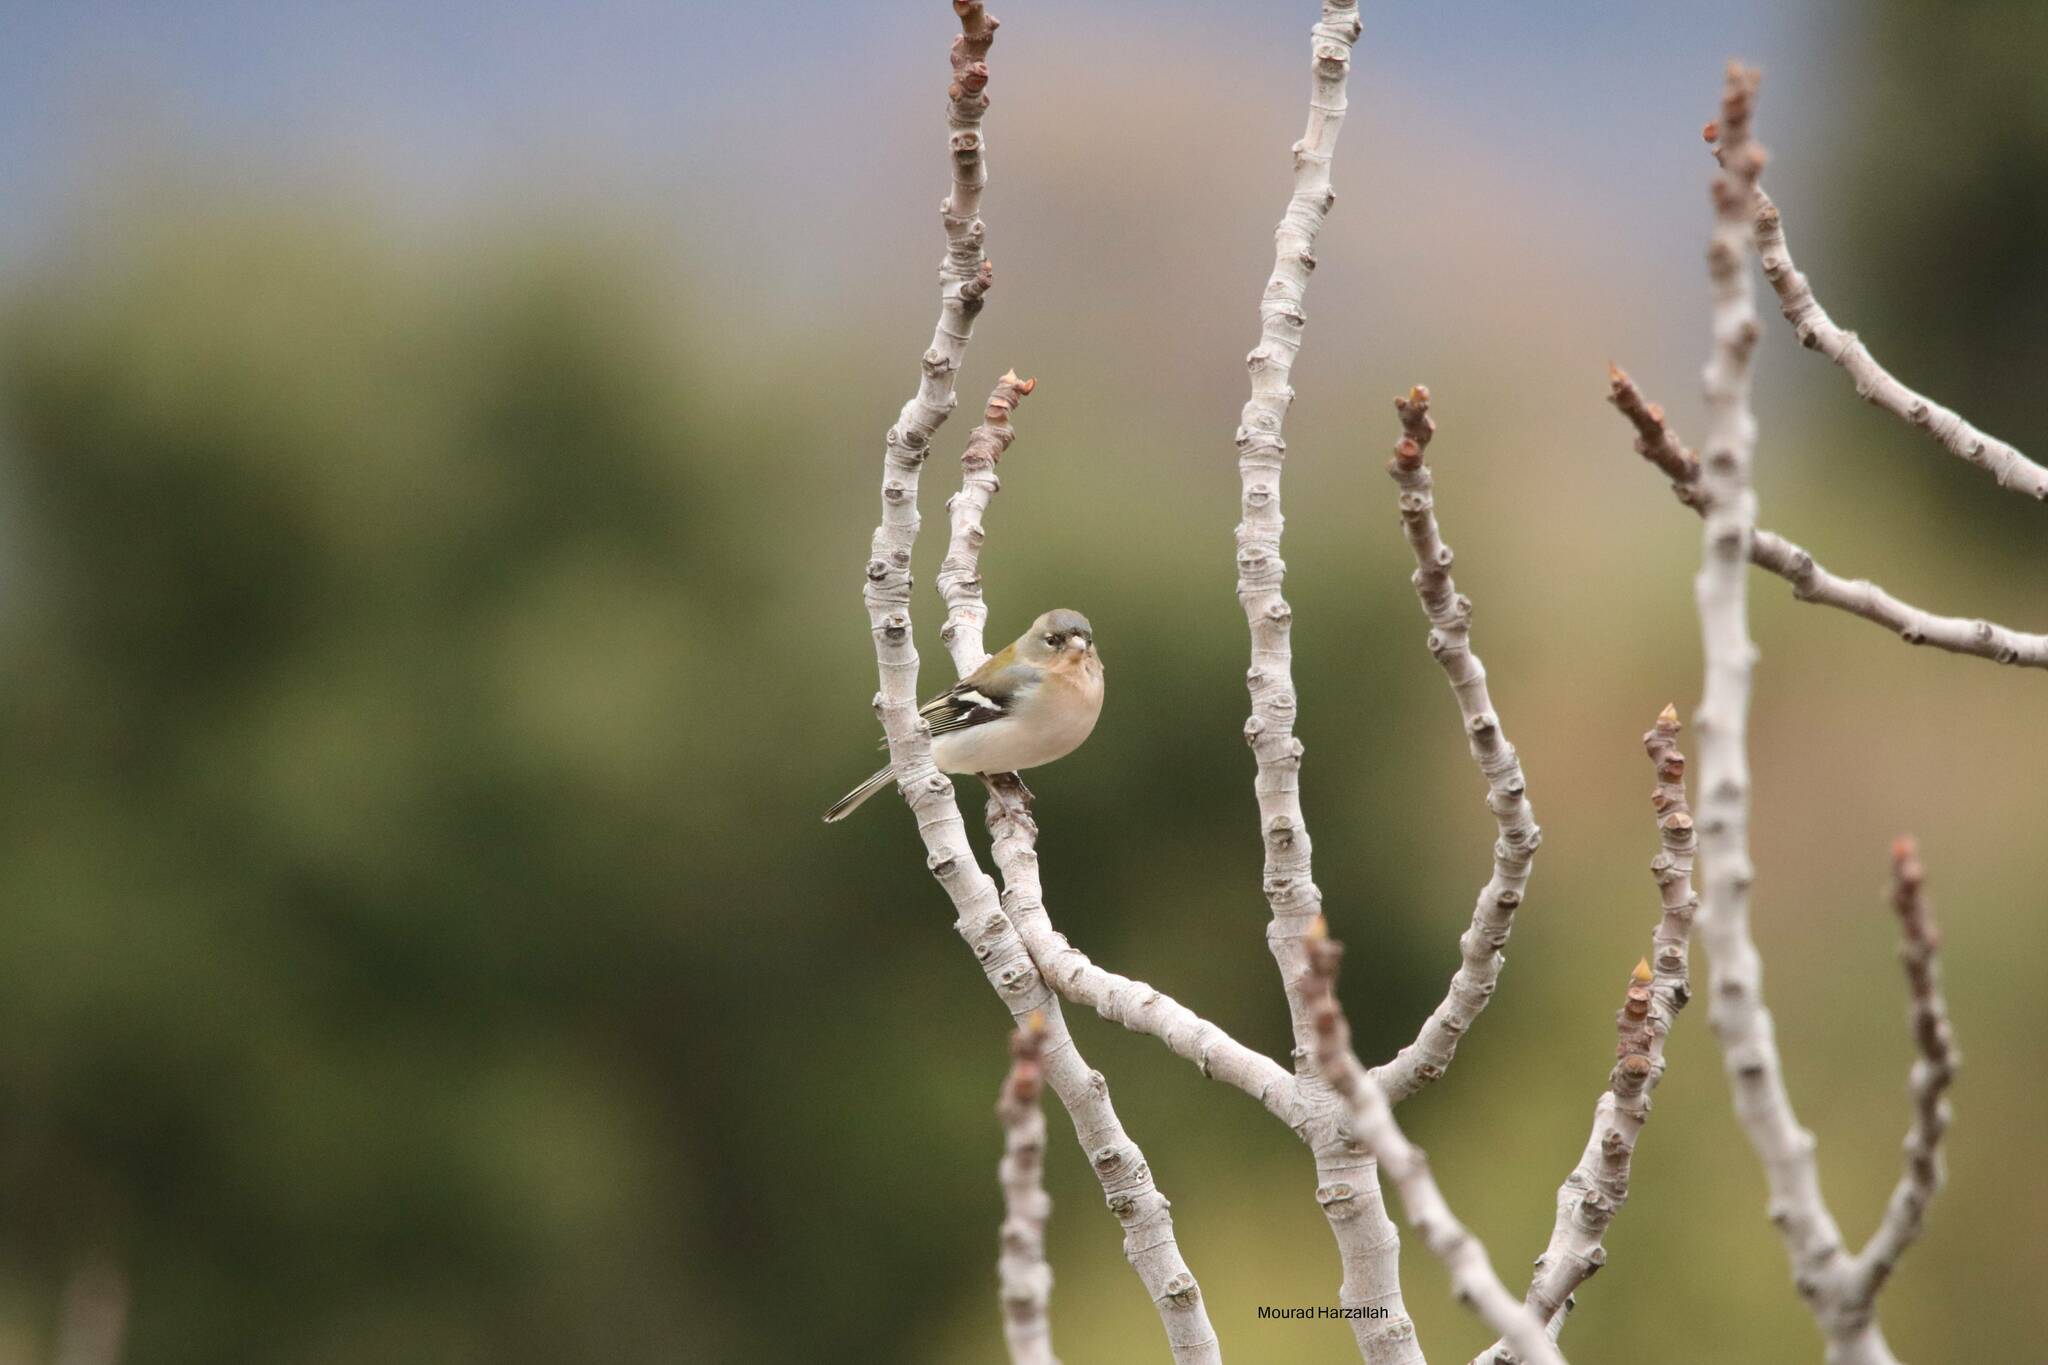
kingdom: Animalia
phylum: Chordata
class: Aves
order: Passeriformes
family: Fringillidae
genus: Fringilla
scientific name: Fringilla spodiogenys
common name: African chaffinch
